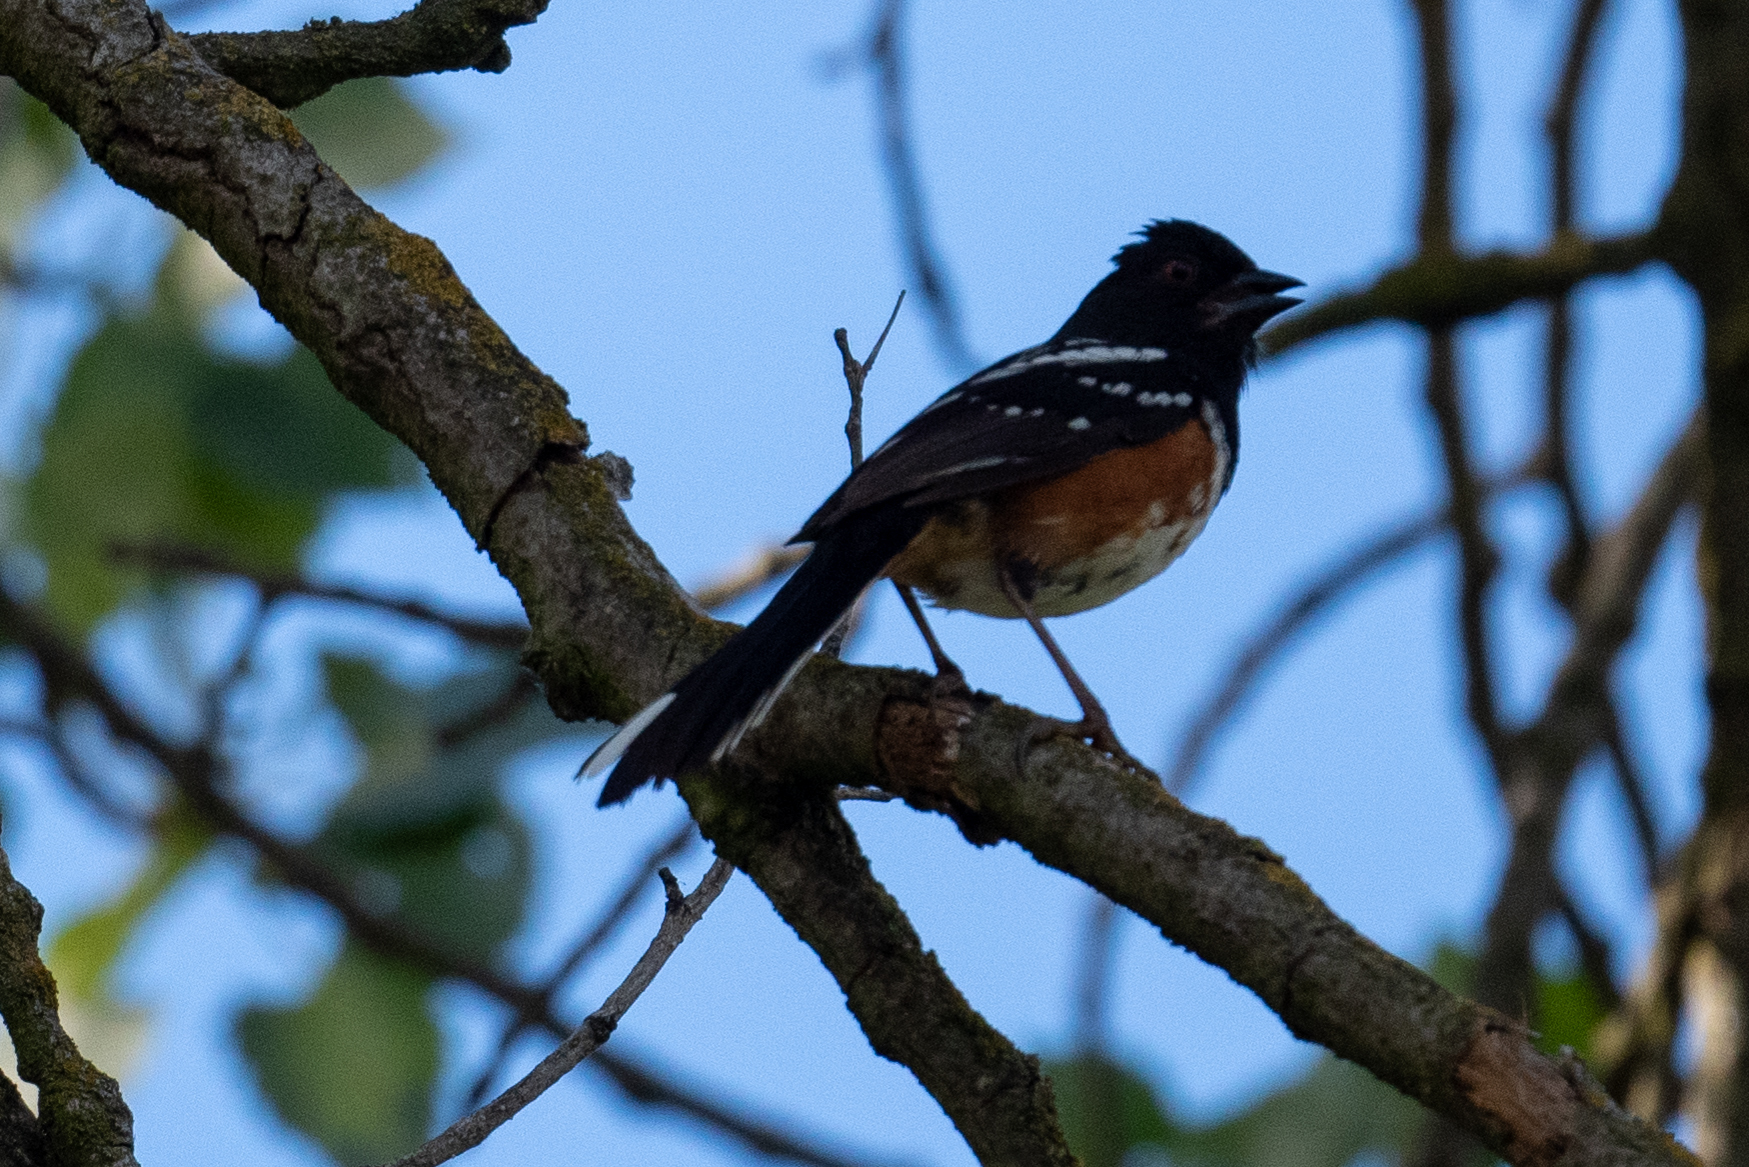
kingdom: Animalia
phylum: Chordata
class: Aves
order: Passeriformes
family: Passerellidae
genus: Pipilo
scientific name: Pipilo maculatus
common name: Spotted towhee
